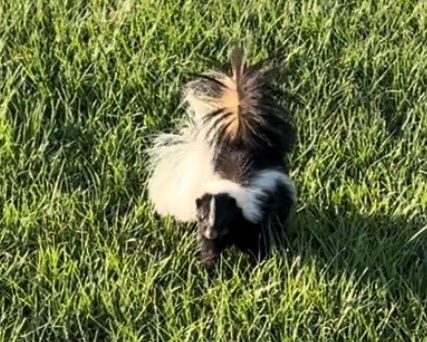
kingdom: Animalia
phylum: Chordata
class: Mammalia
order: Carnivora
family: Mephitidae
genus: Mephitis
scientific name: Mephitis mephitis
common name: Striped skunk
